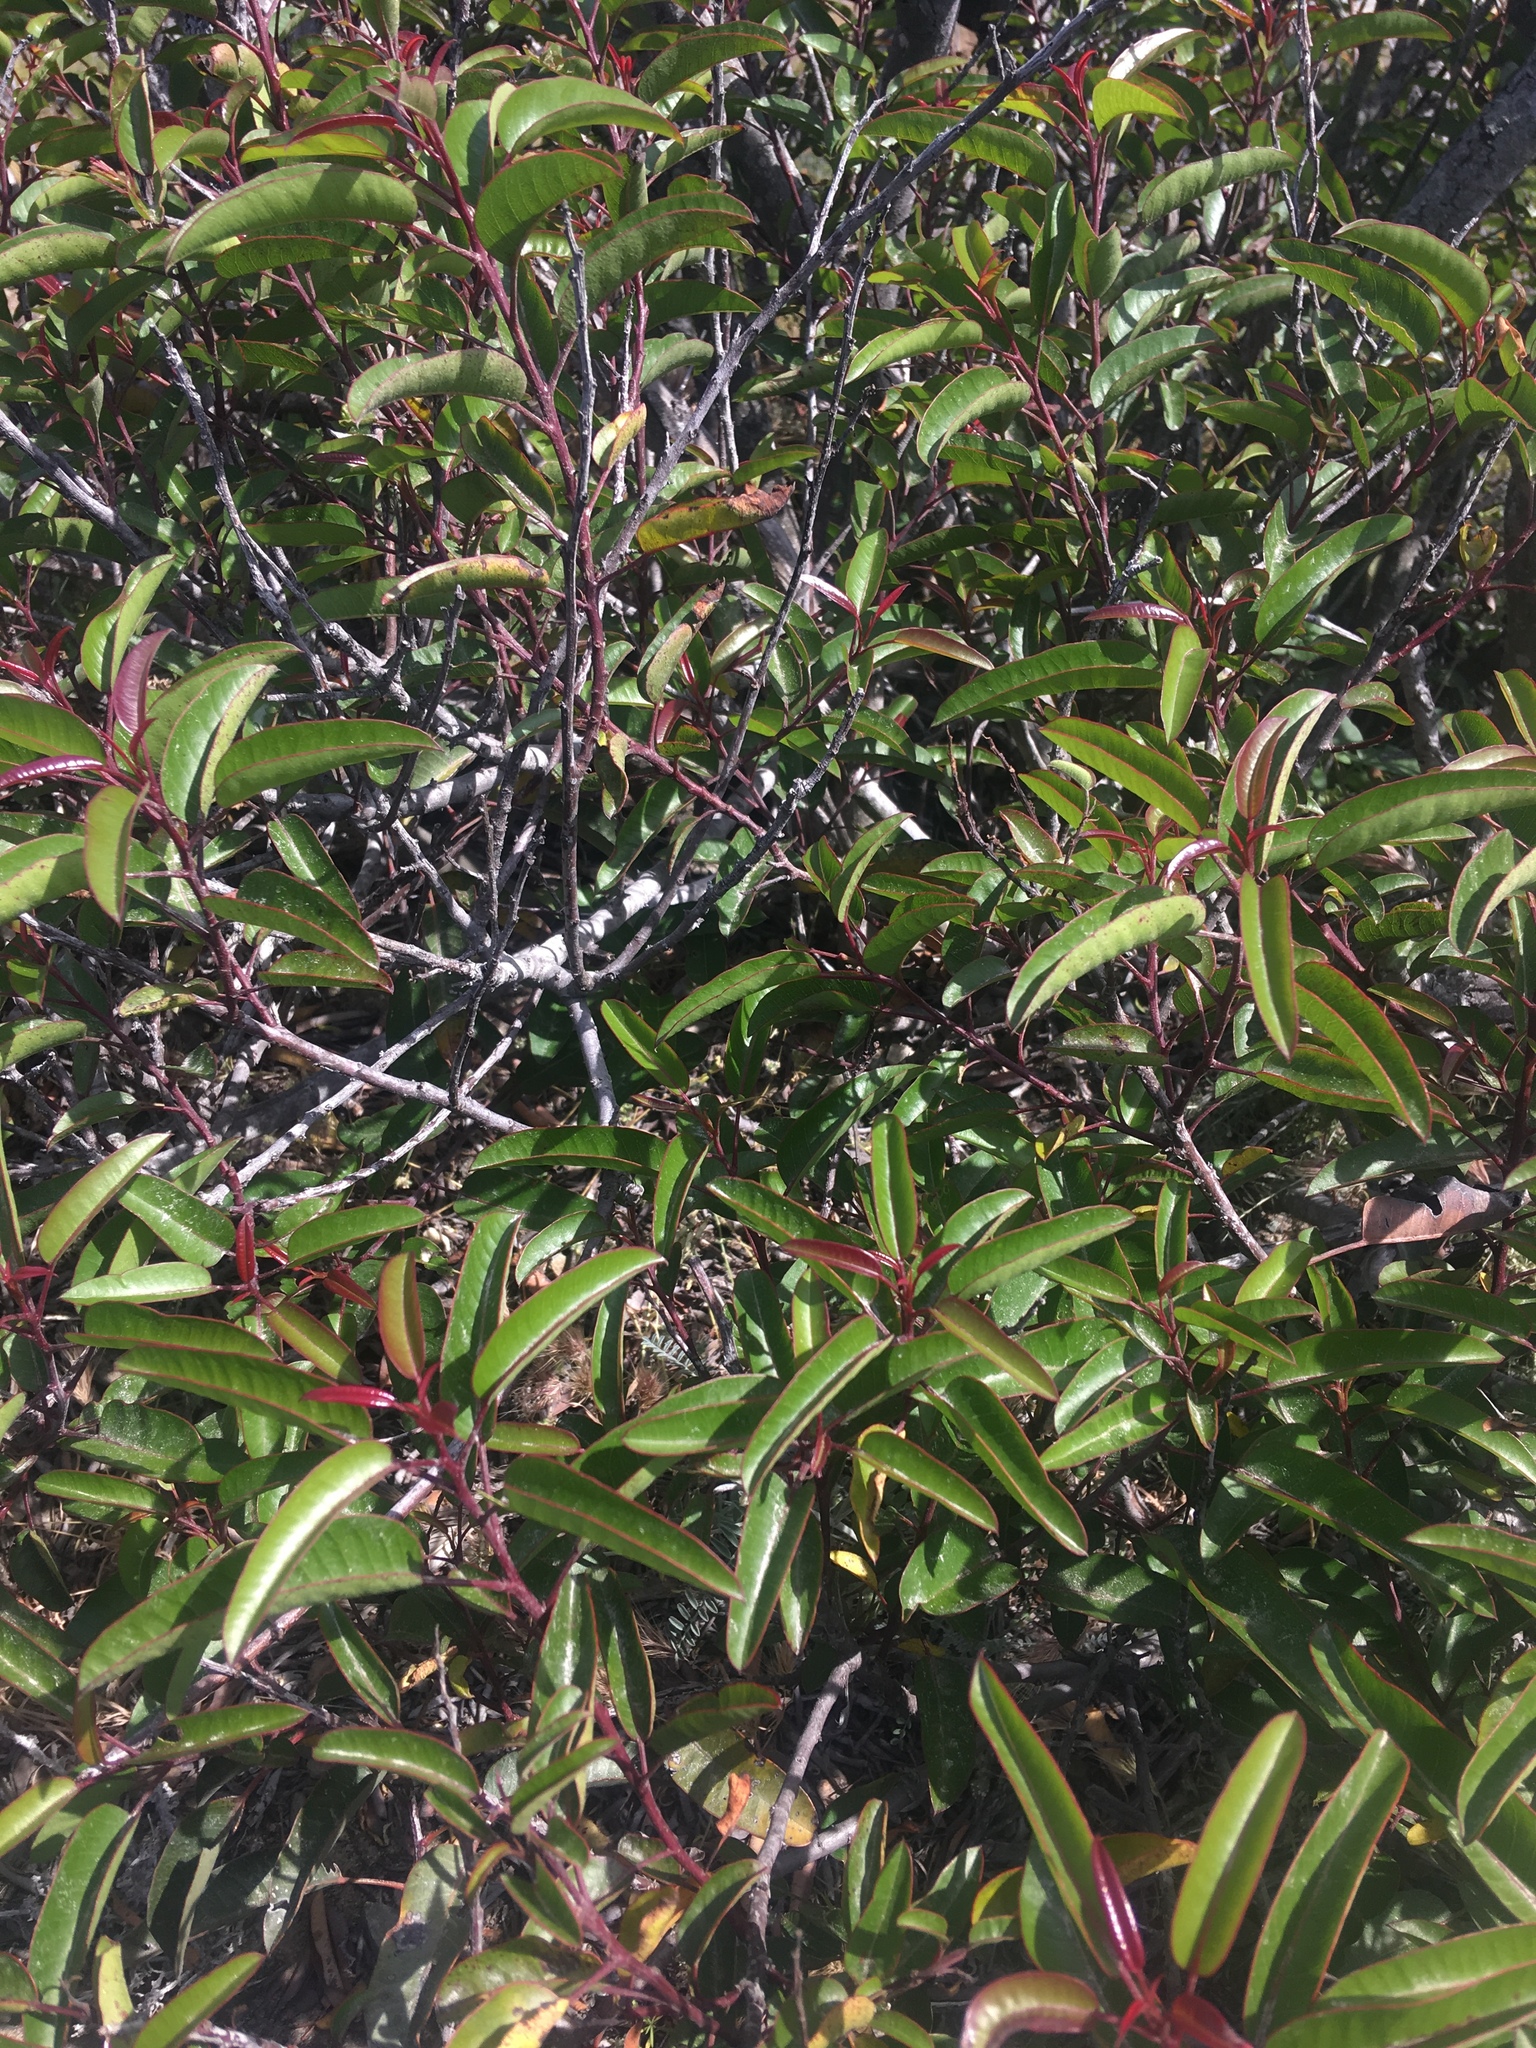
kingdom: Plantae
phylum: Tracheophyta
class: Magnoliopsida
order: Sapindales
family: Anacardiaceae
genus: Malosma
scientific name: Malosma laurina
